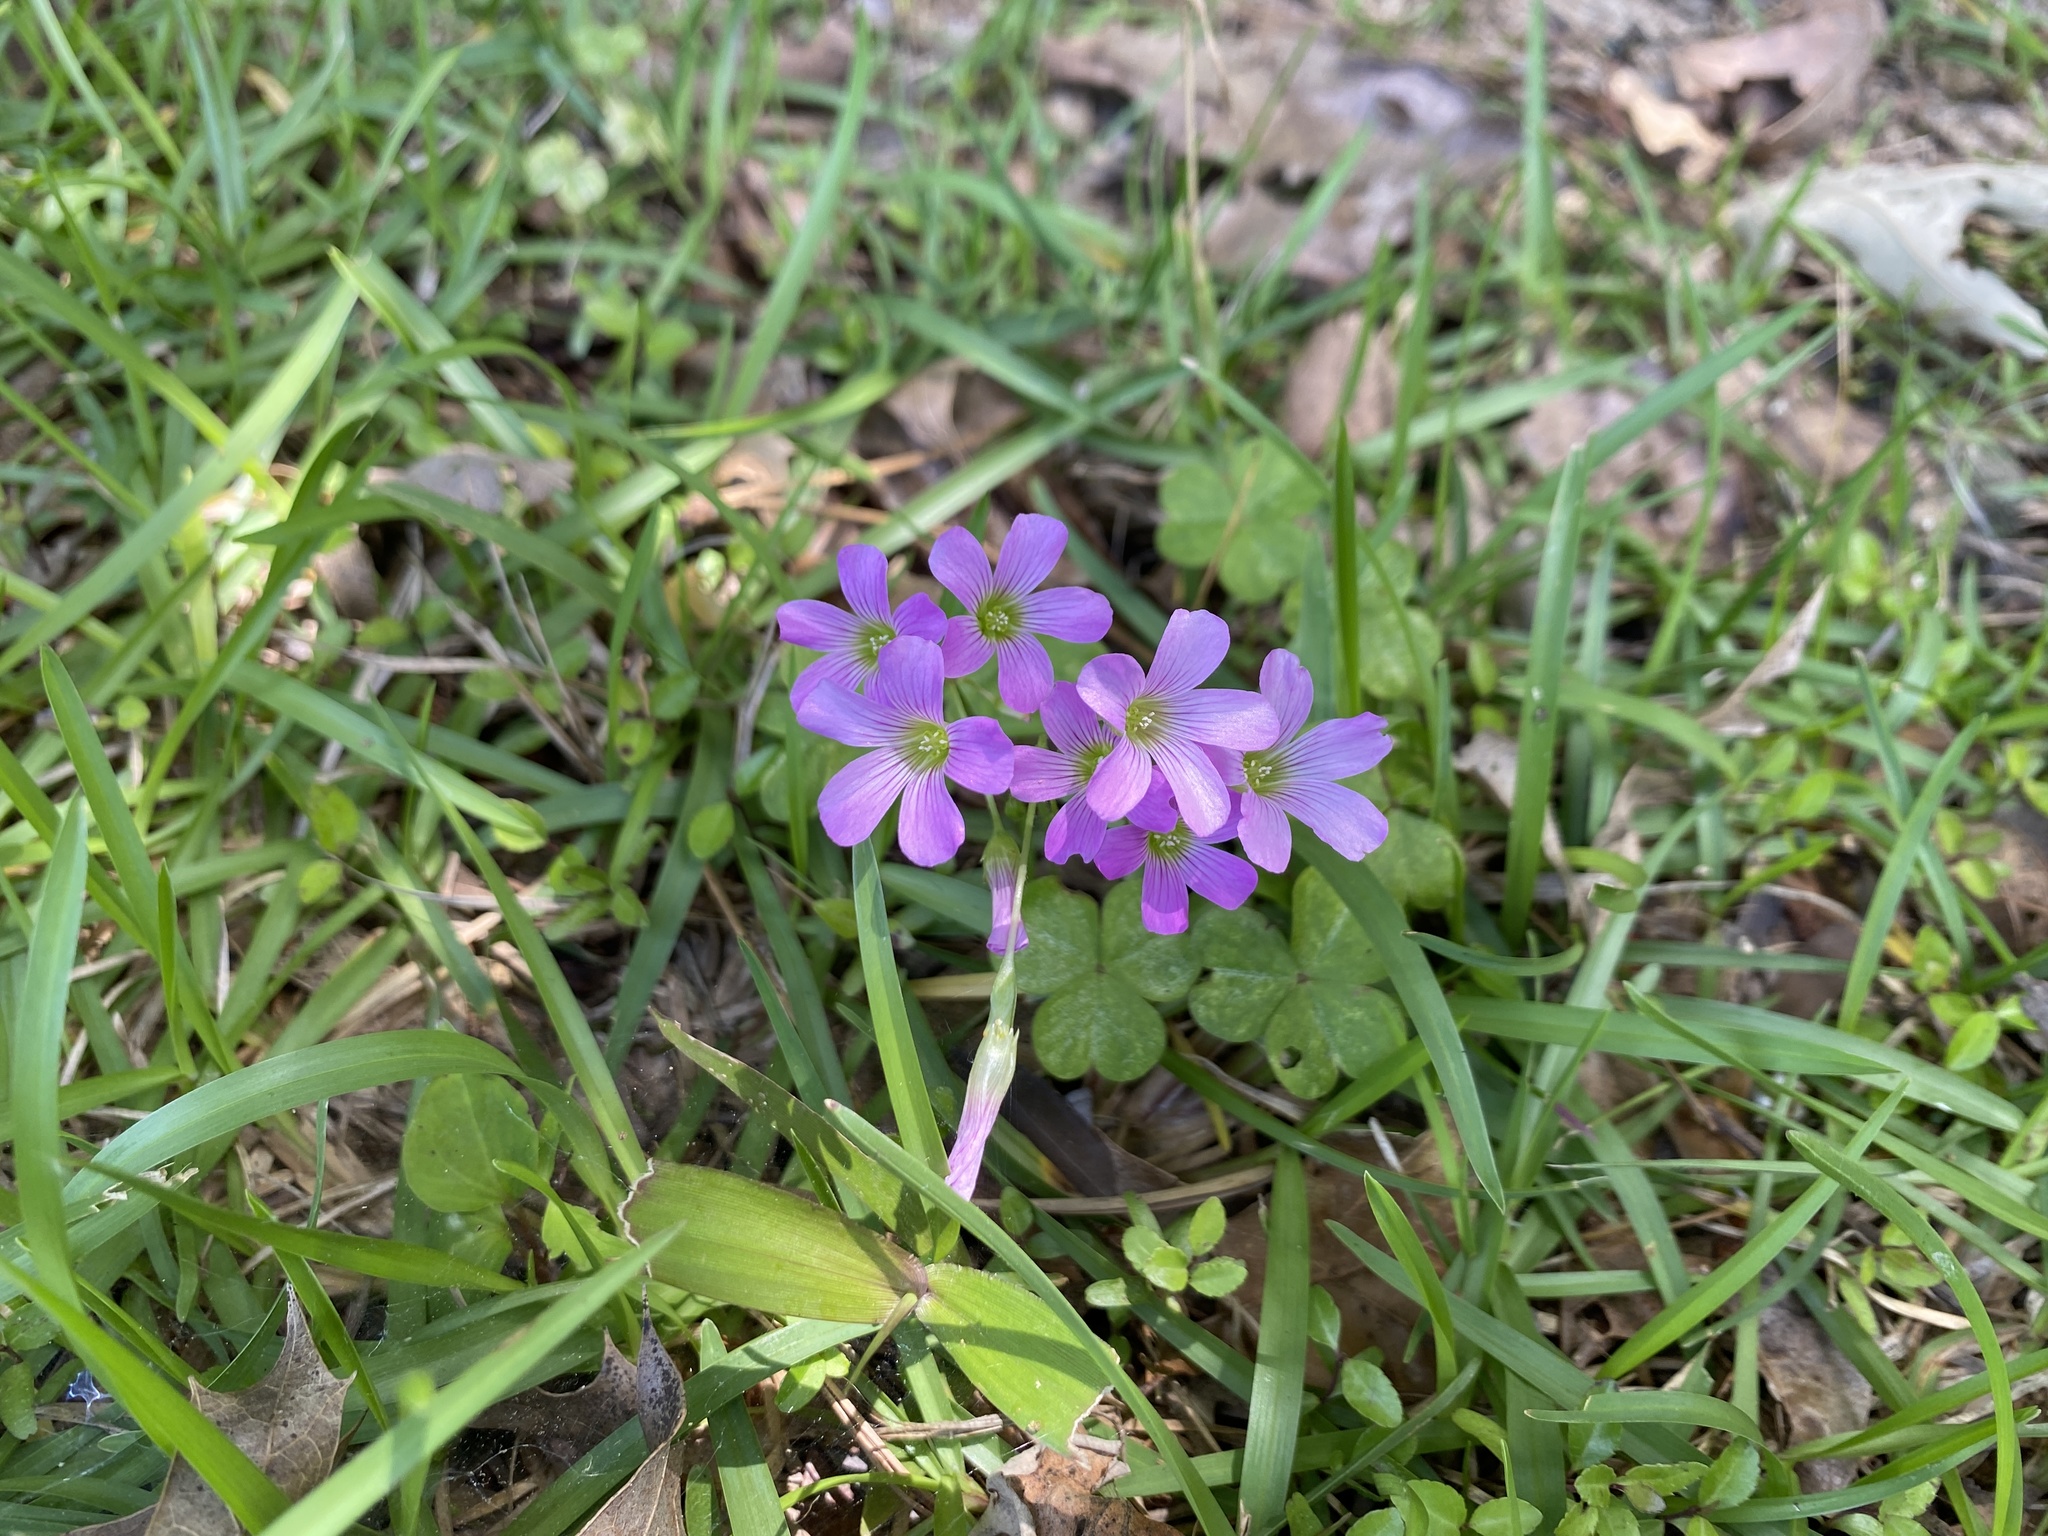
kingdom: Plantae
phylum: Tracheophyta
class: Magnoliopsida
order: Oxalidales
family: Oxalidaceae
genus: Oxalis
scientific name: Oxalis debilis
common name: Large-flowered pink-sorrel
